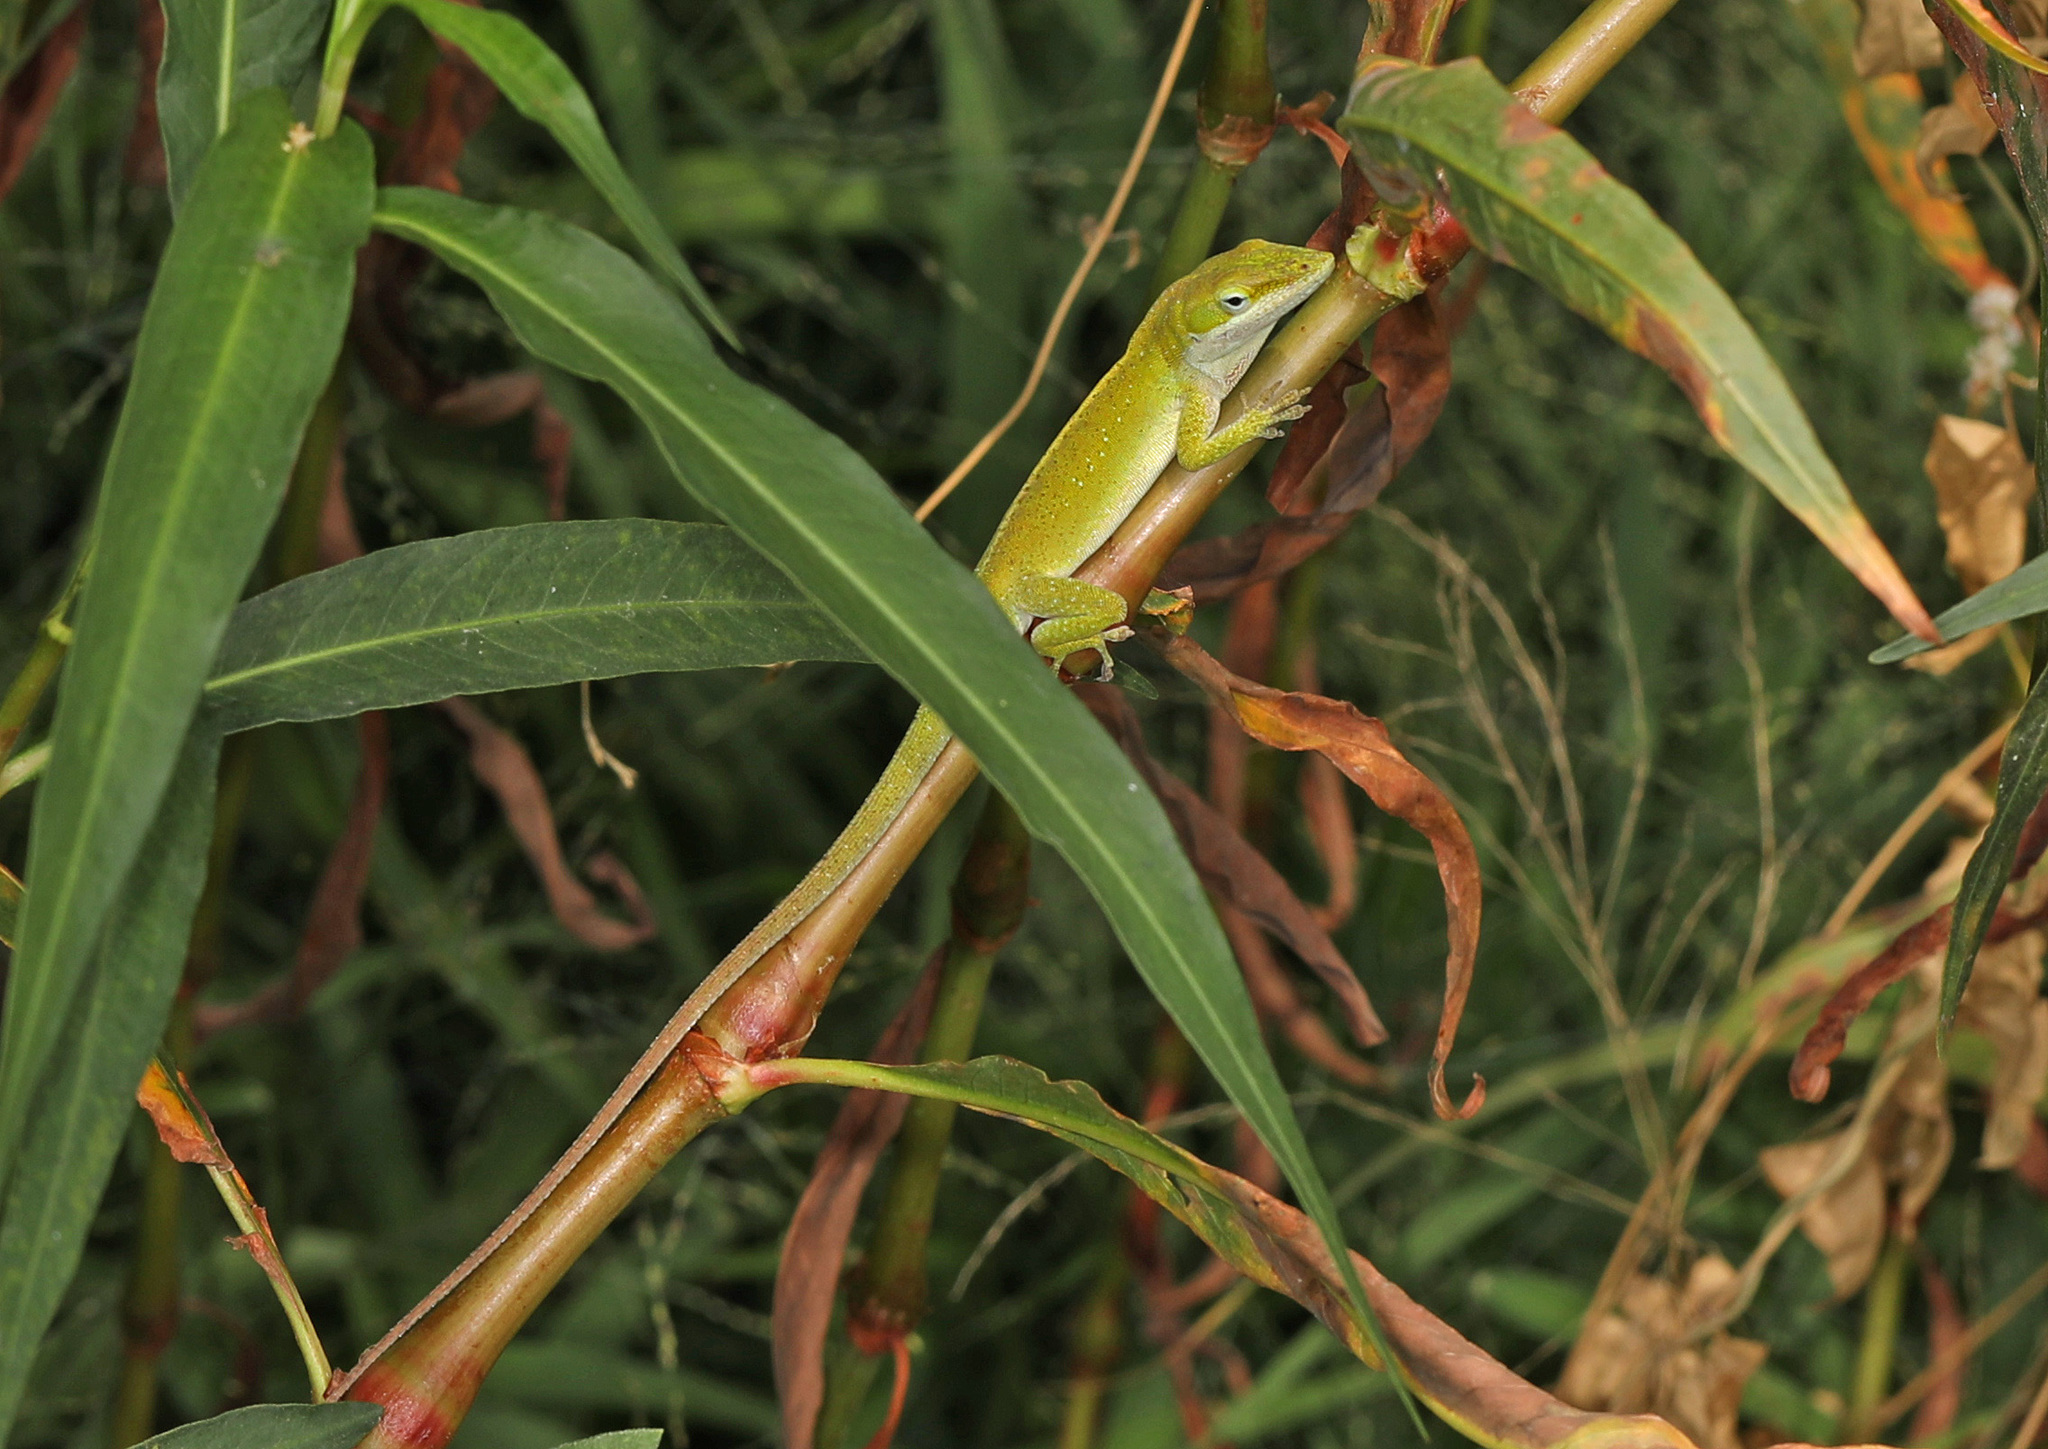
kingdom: Animalia
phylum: Chordata
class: Squamata
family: Dactyloidae
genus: Anolis
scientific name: Anolis carolinensis
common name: Green anole
